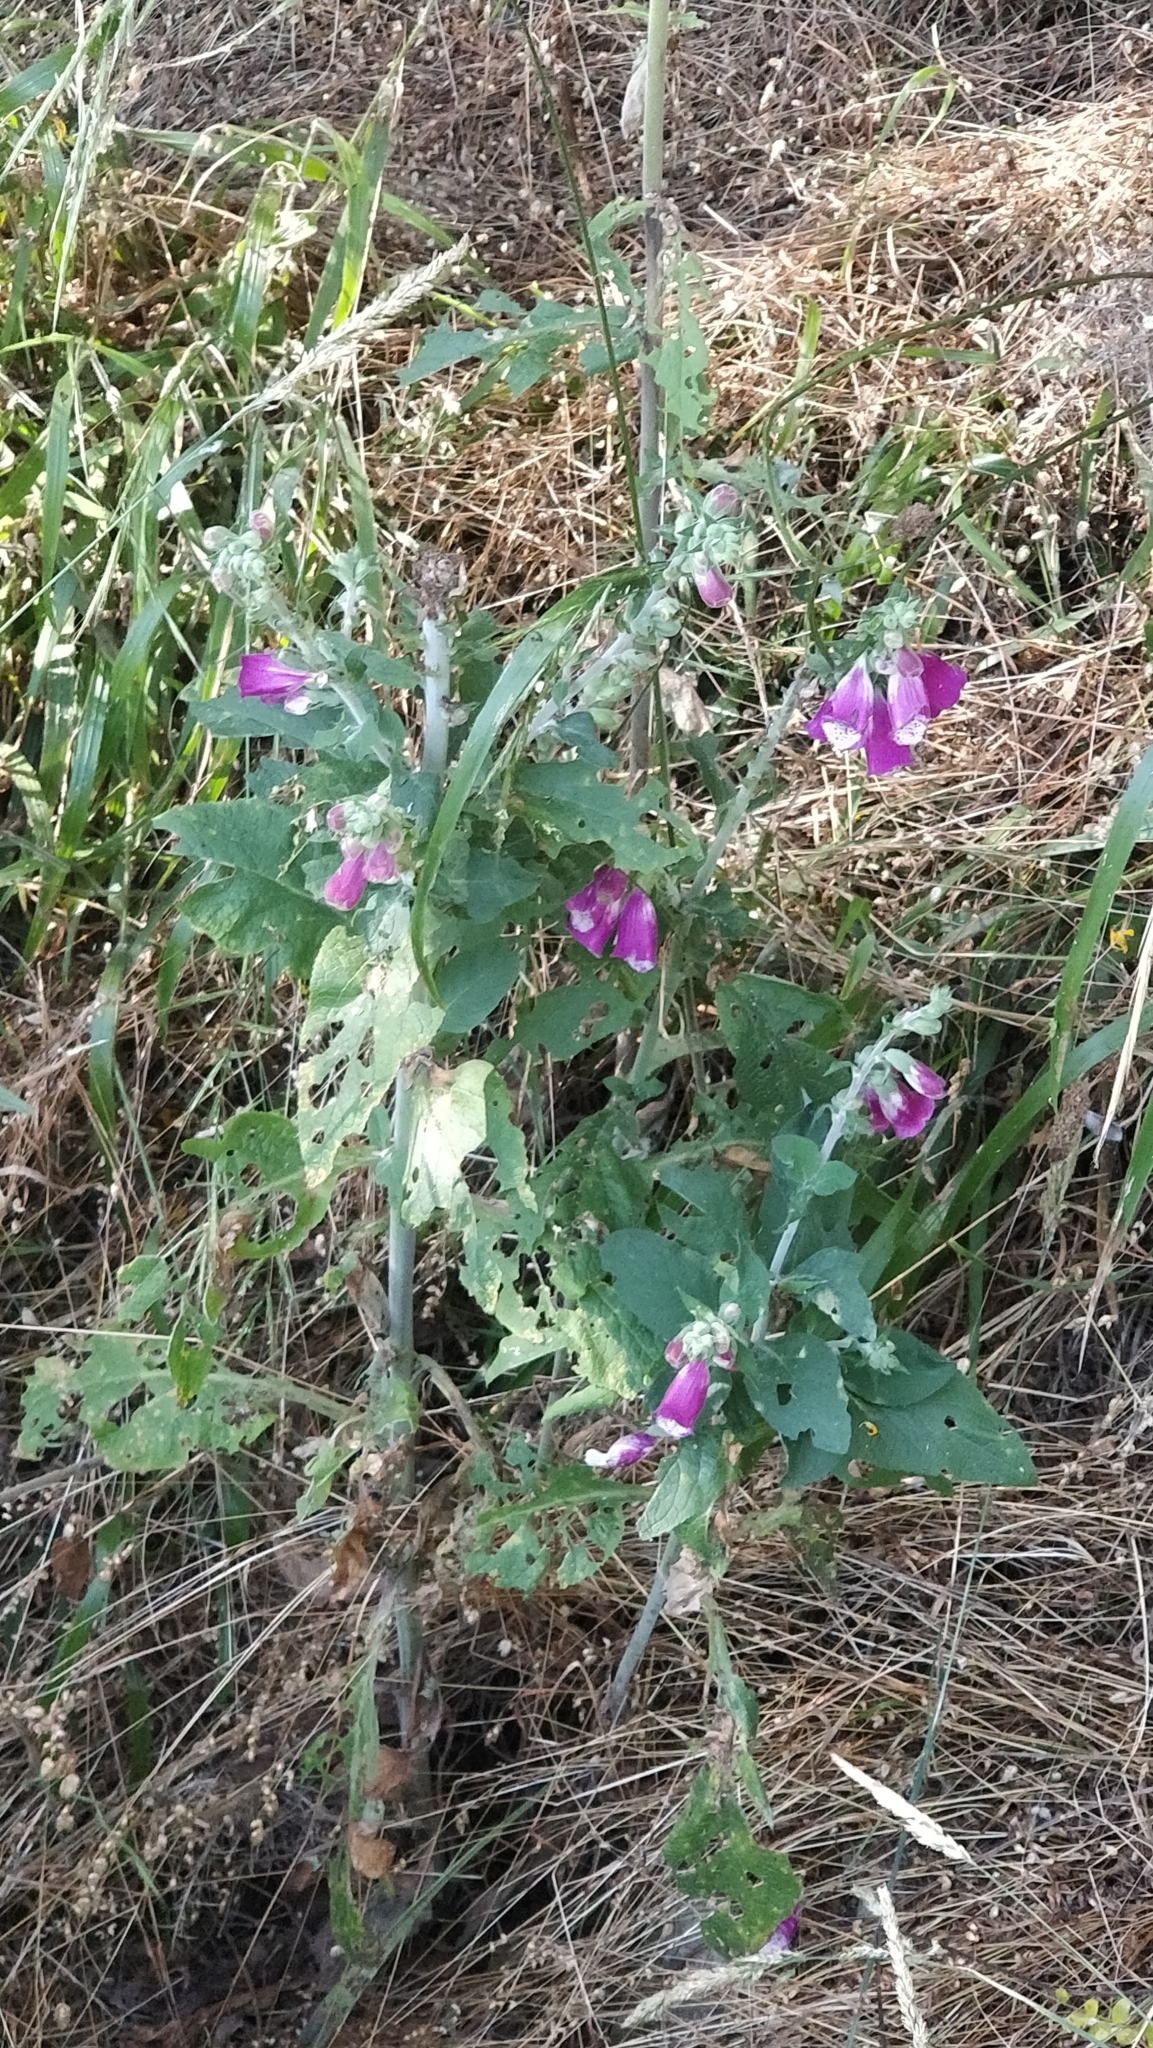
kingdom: Plantae
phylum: Tracheophyta
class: Magnoliopsida
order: Lamiales
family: Plantaginaceae
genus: Digitalis
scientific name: Digitalis purpurea
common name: Foxglove
